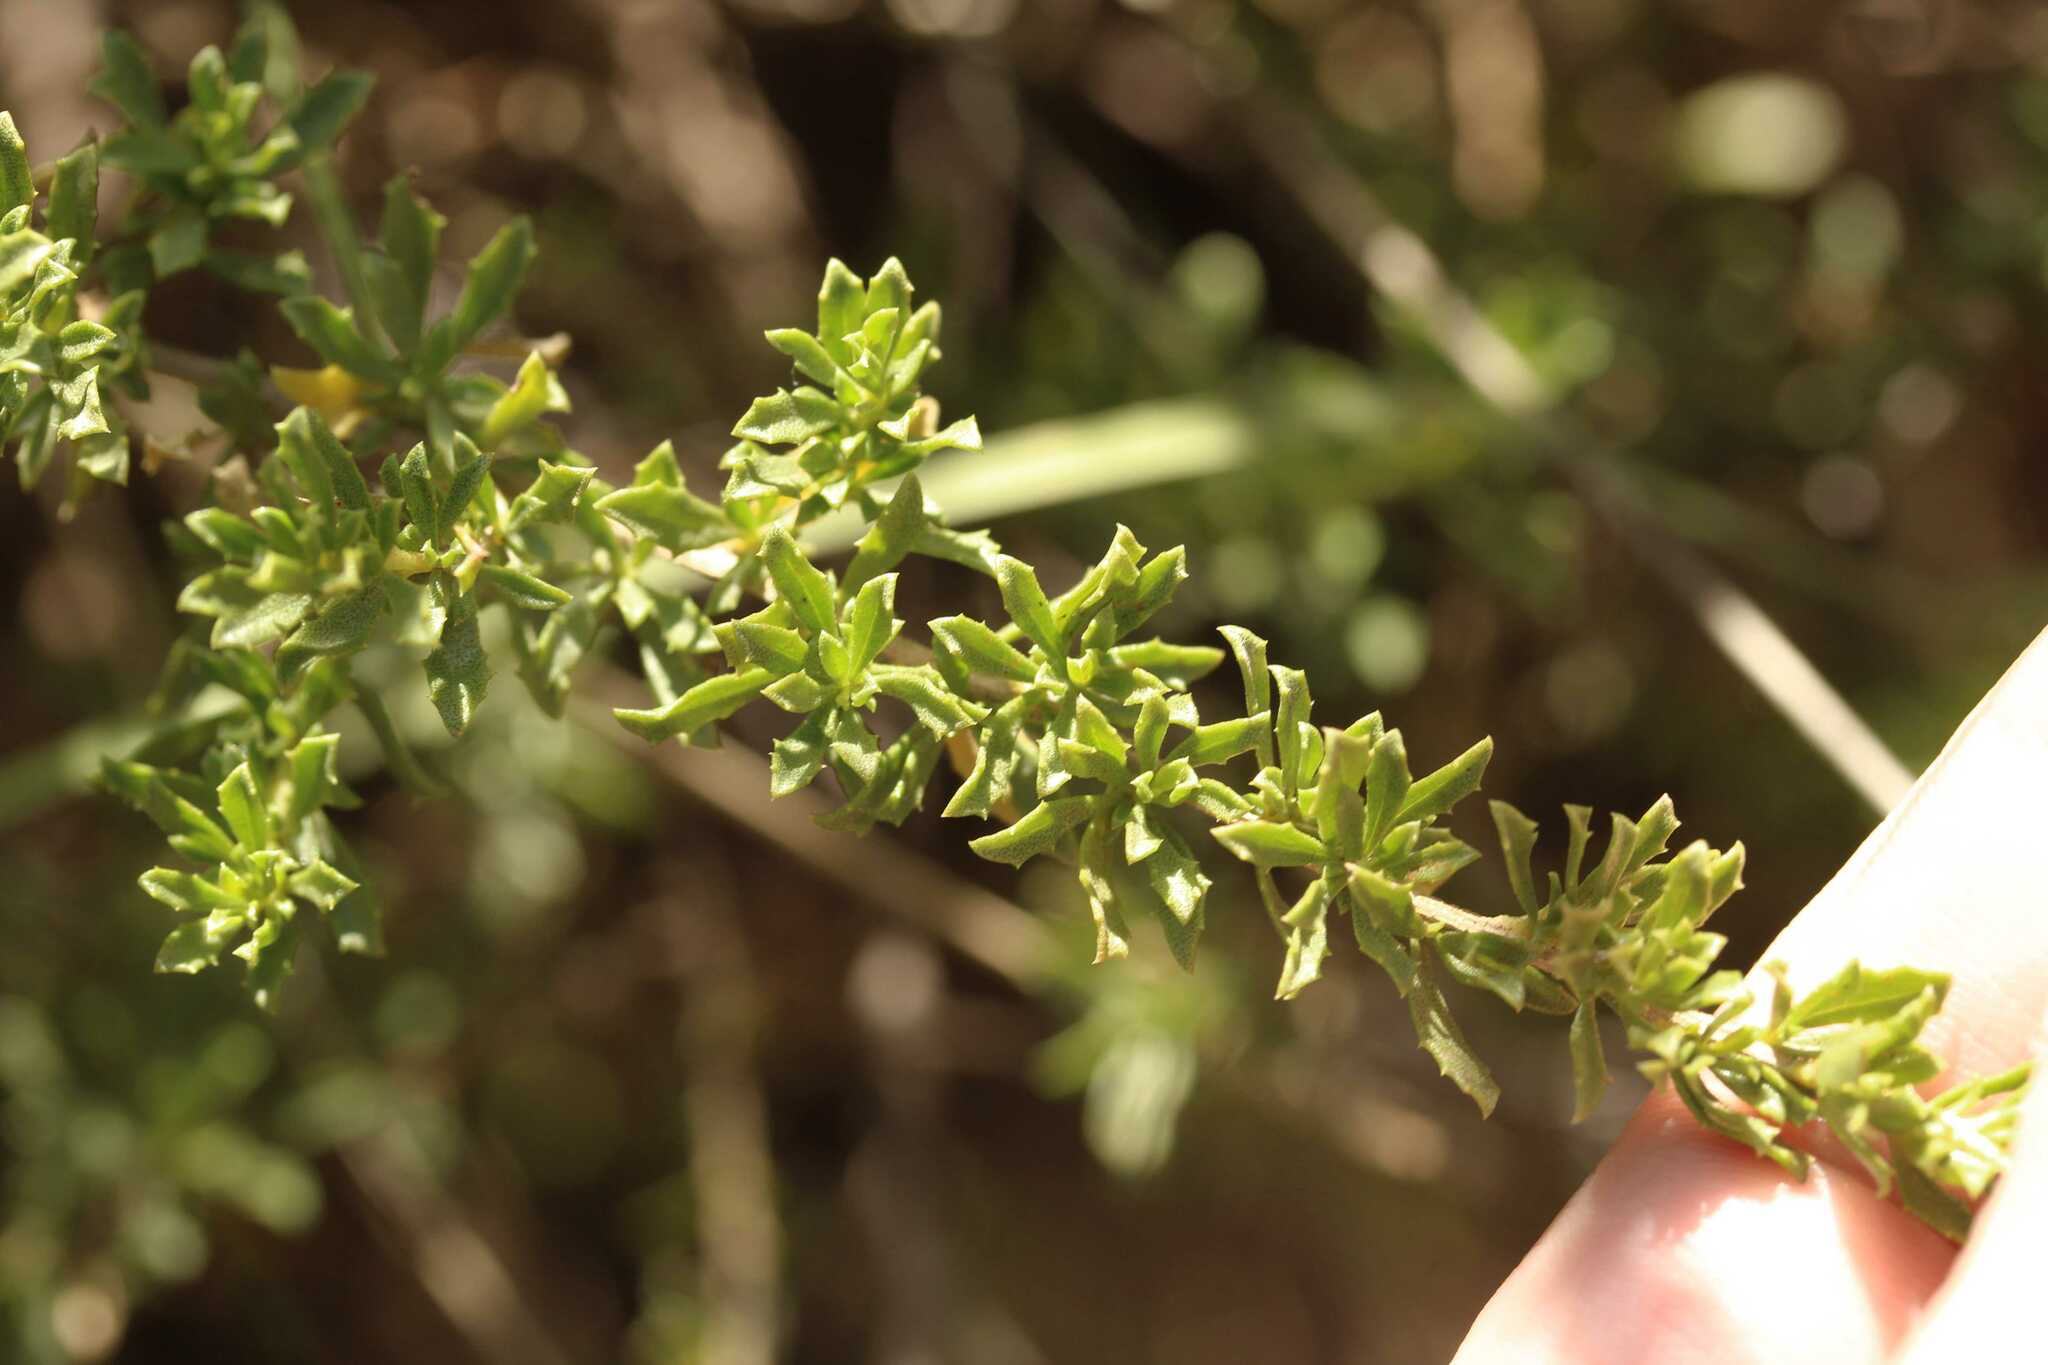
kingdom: Plantae
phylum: Tracheophyta
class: Magnoliopsida
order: Asterales
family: Asteraceae
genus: Baccharis
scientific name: Baccharis pteronioides
